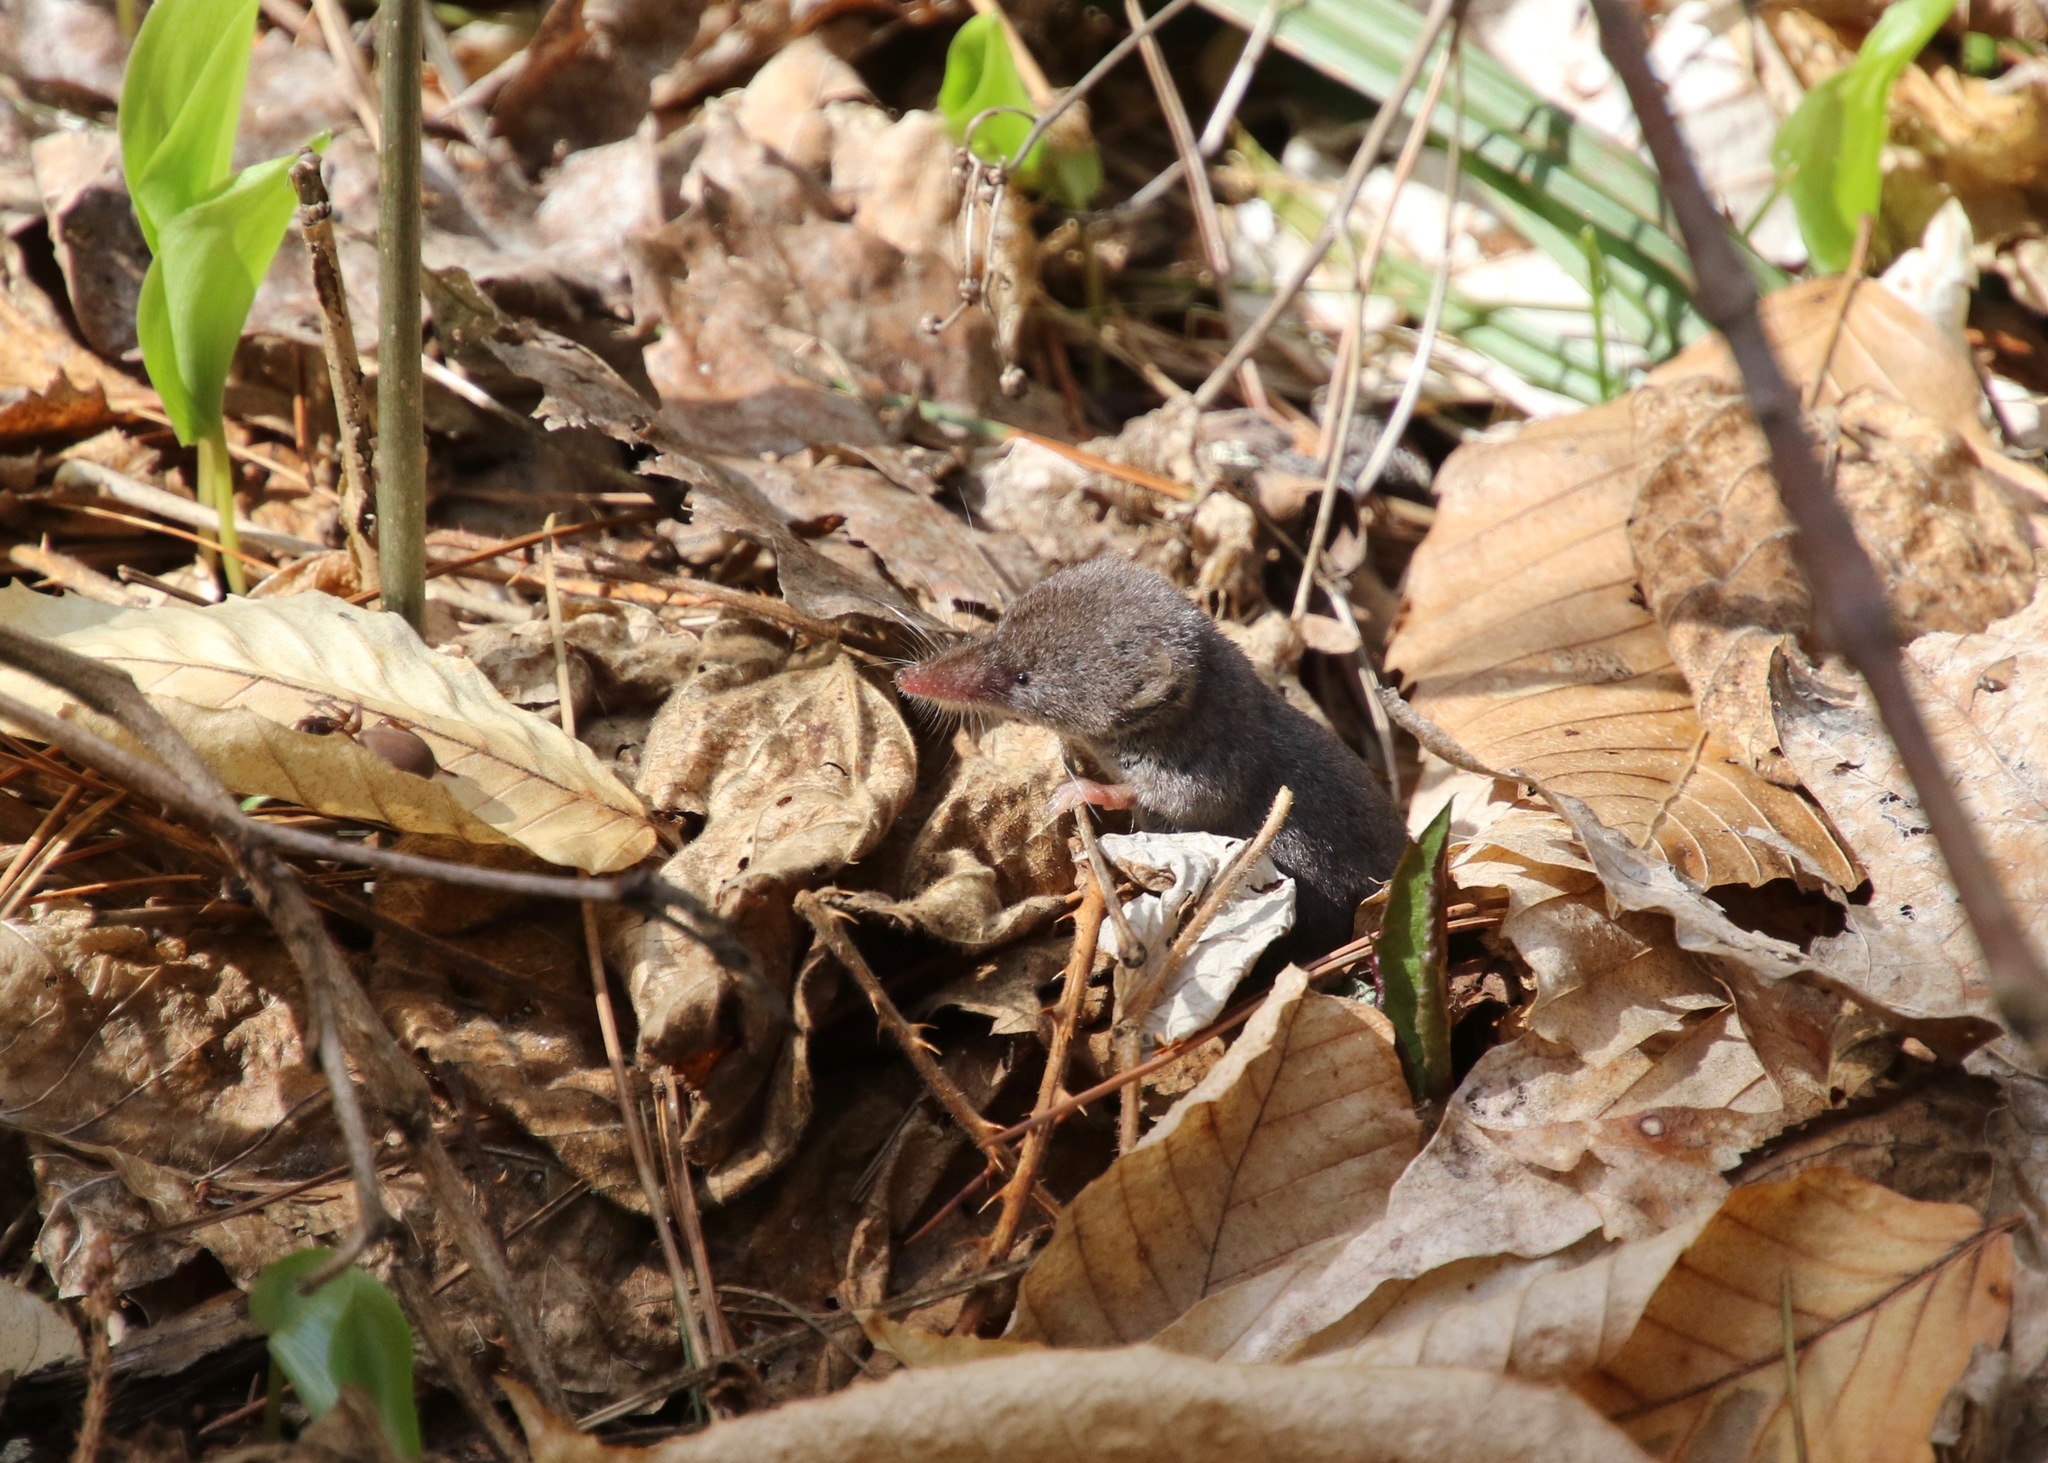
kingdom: Animalia
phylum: Chordata
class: Mammalia
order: Soricomorpha
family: Soricidae
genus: Sorex
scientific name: Sorex cinereus
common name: Cinereus shrew
